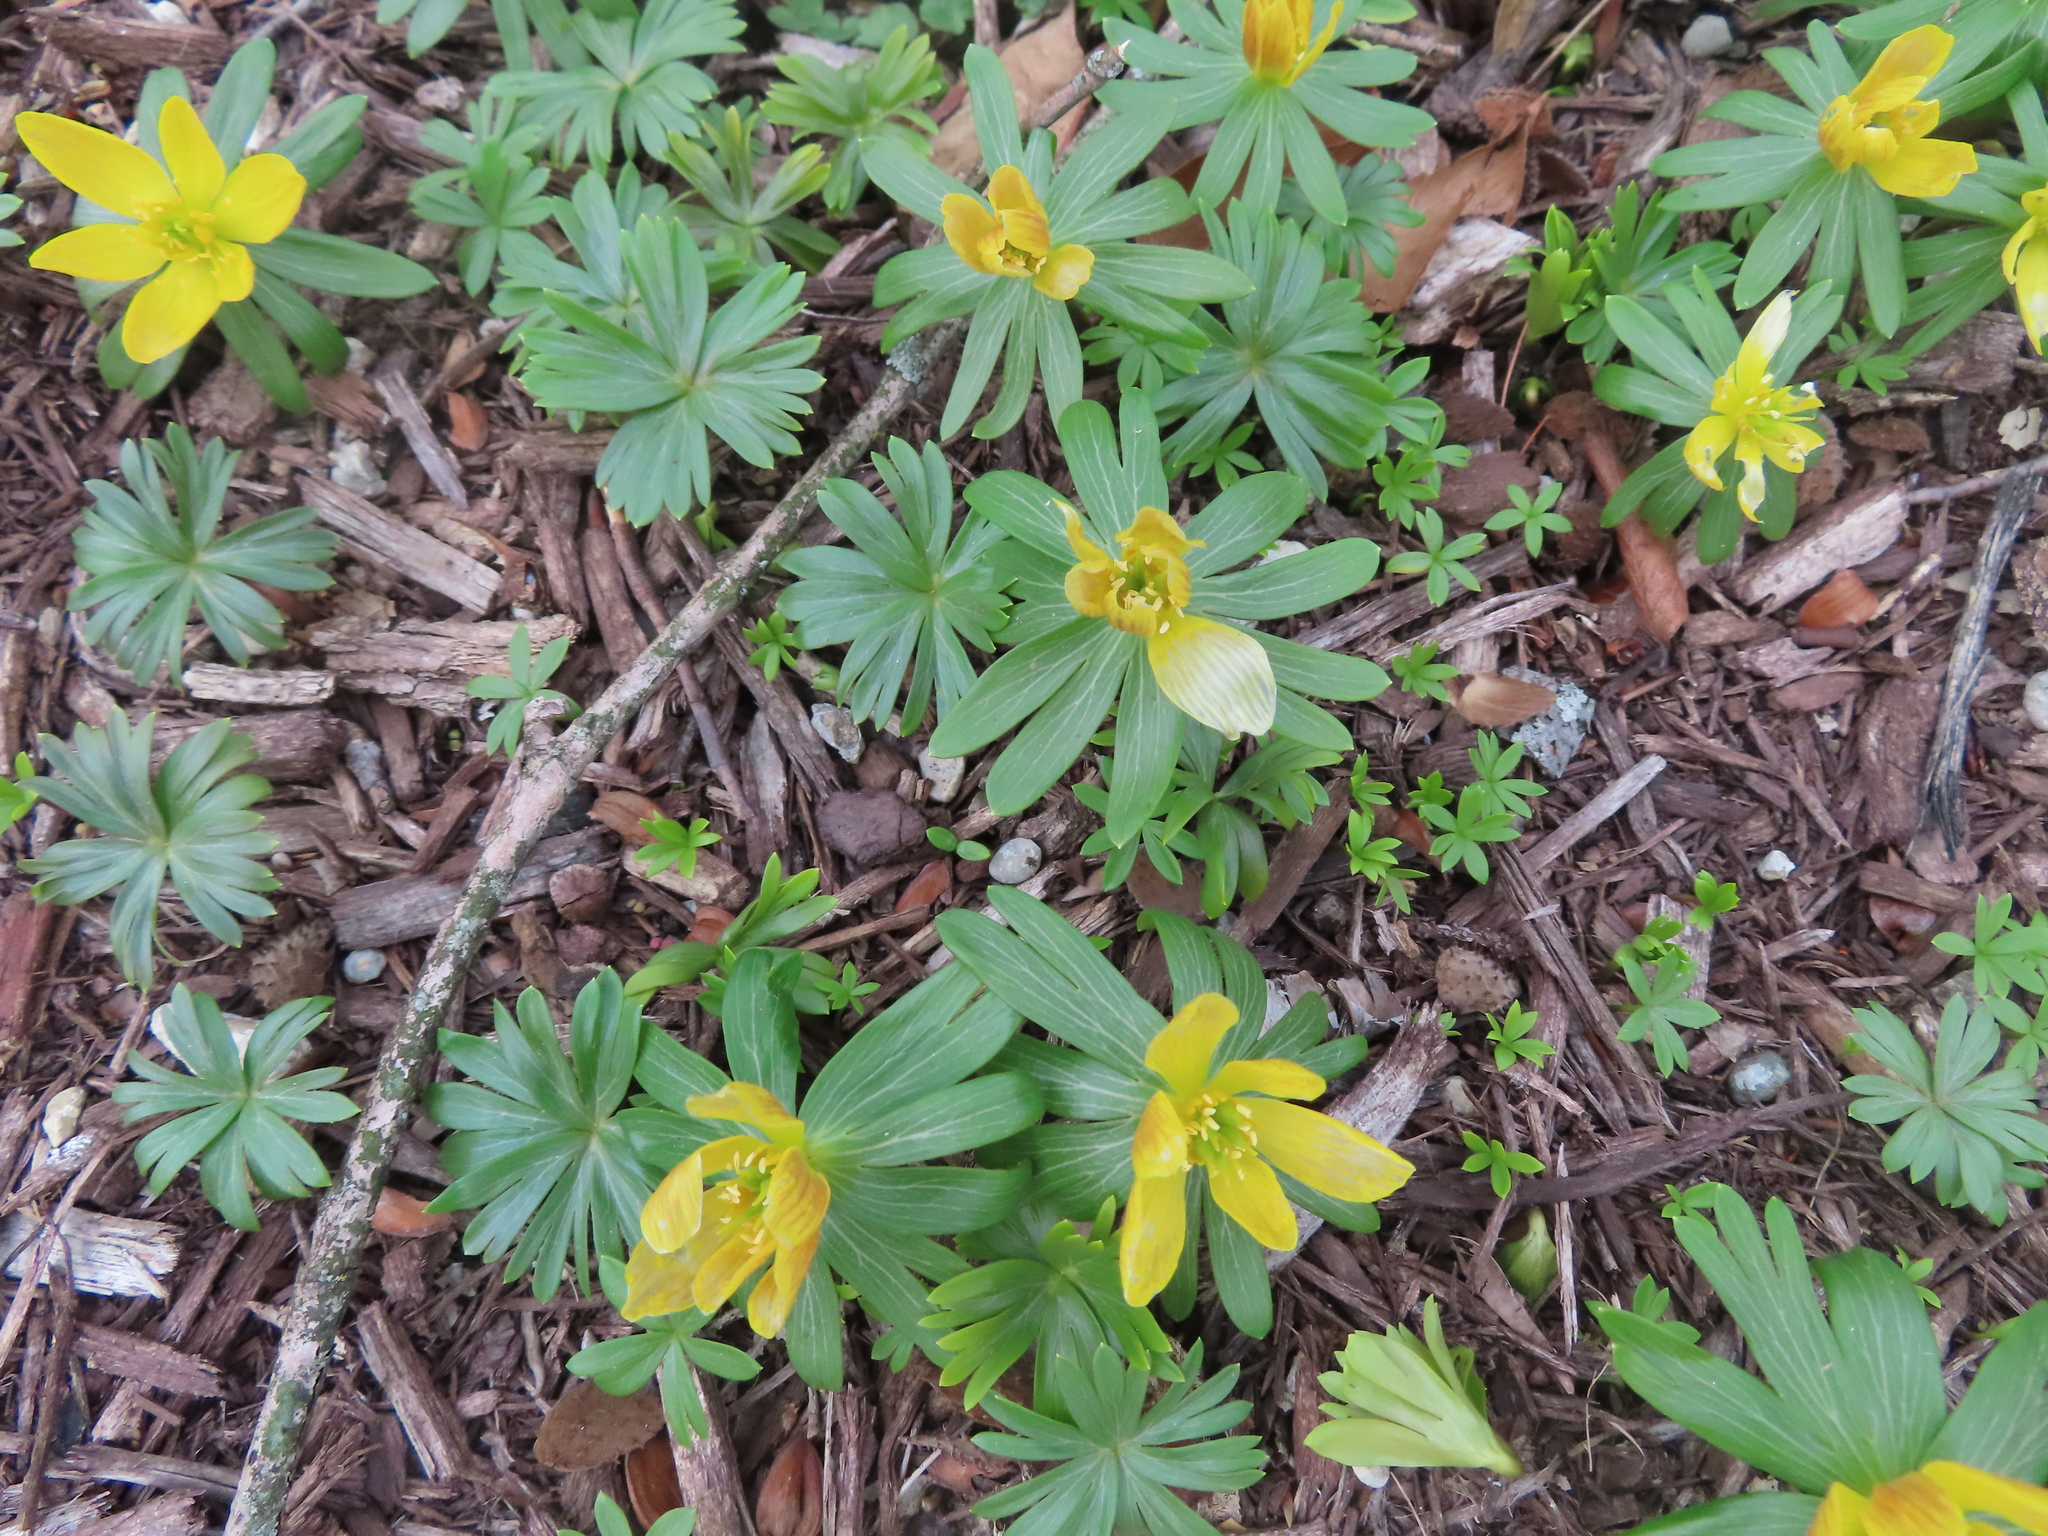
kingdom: Plantae
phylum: Tracheophyta
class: Magnoliopsida
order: Ranunculales
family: Ranunculaceae
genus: Eranthis
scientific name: Eranthis hyemalis
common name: Winter aconite
